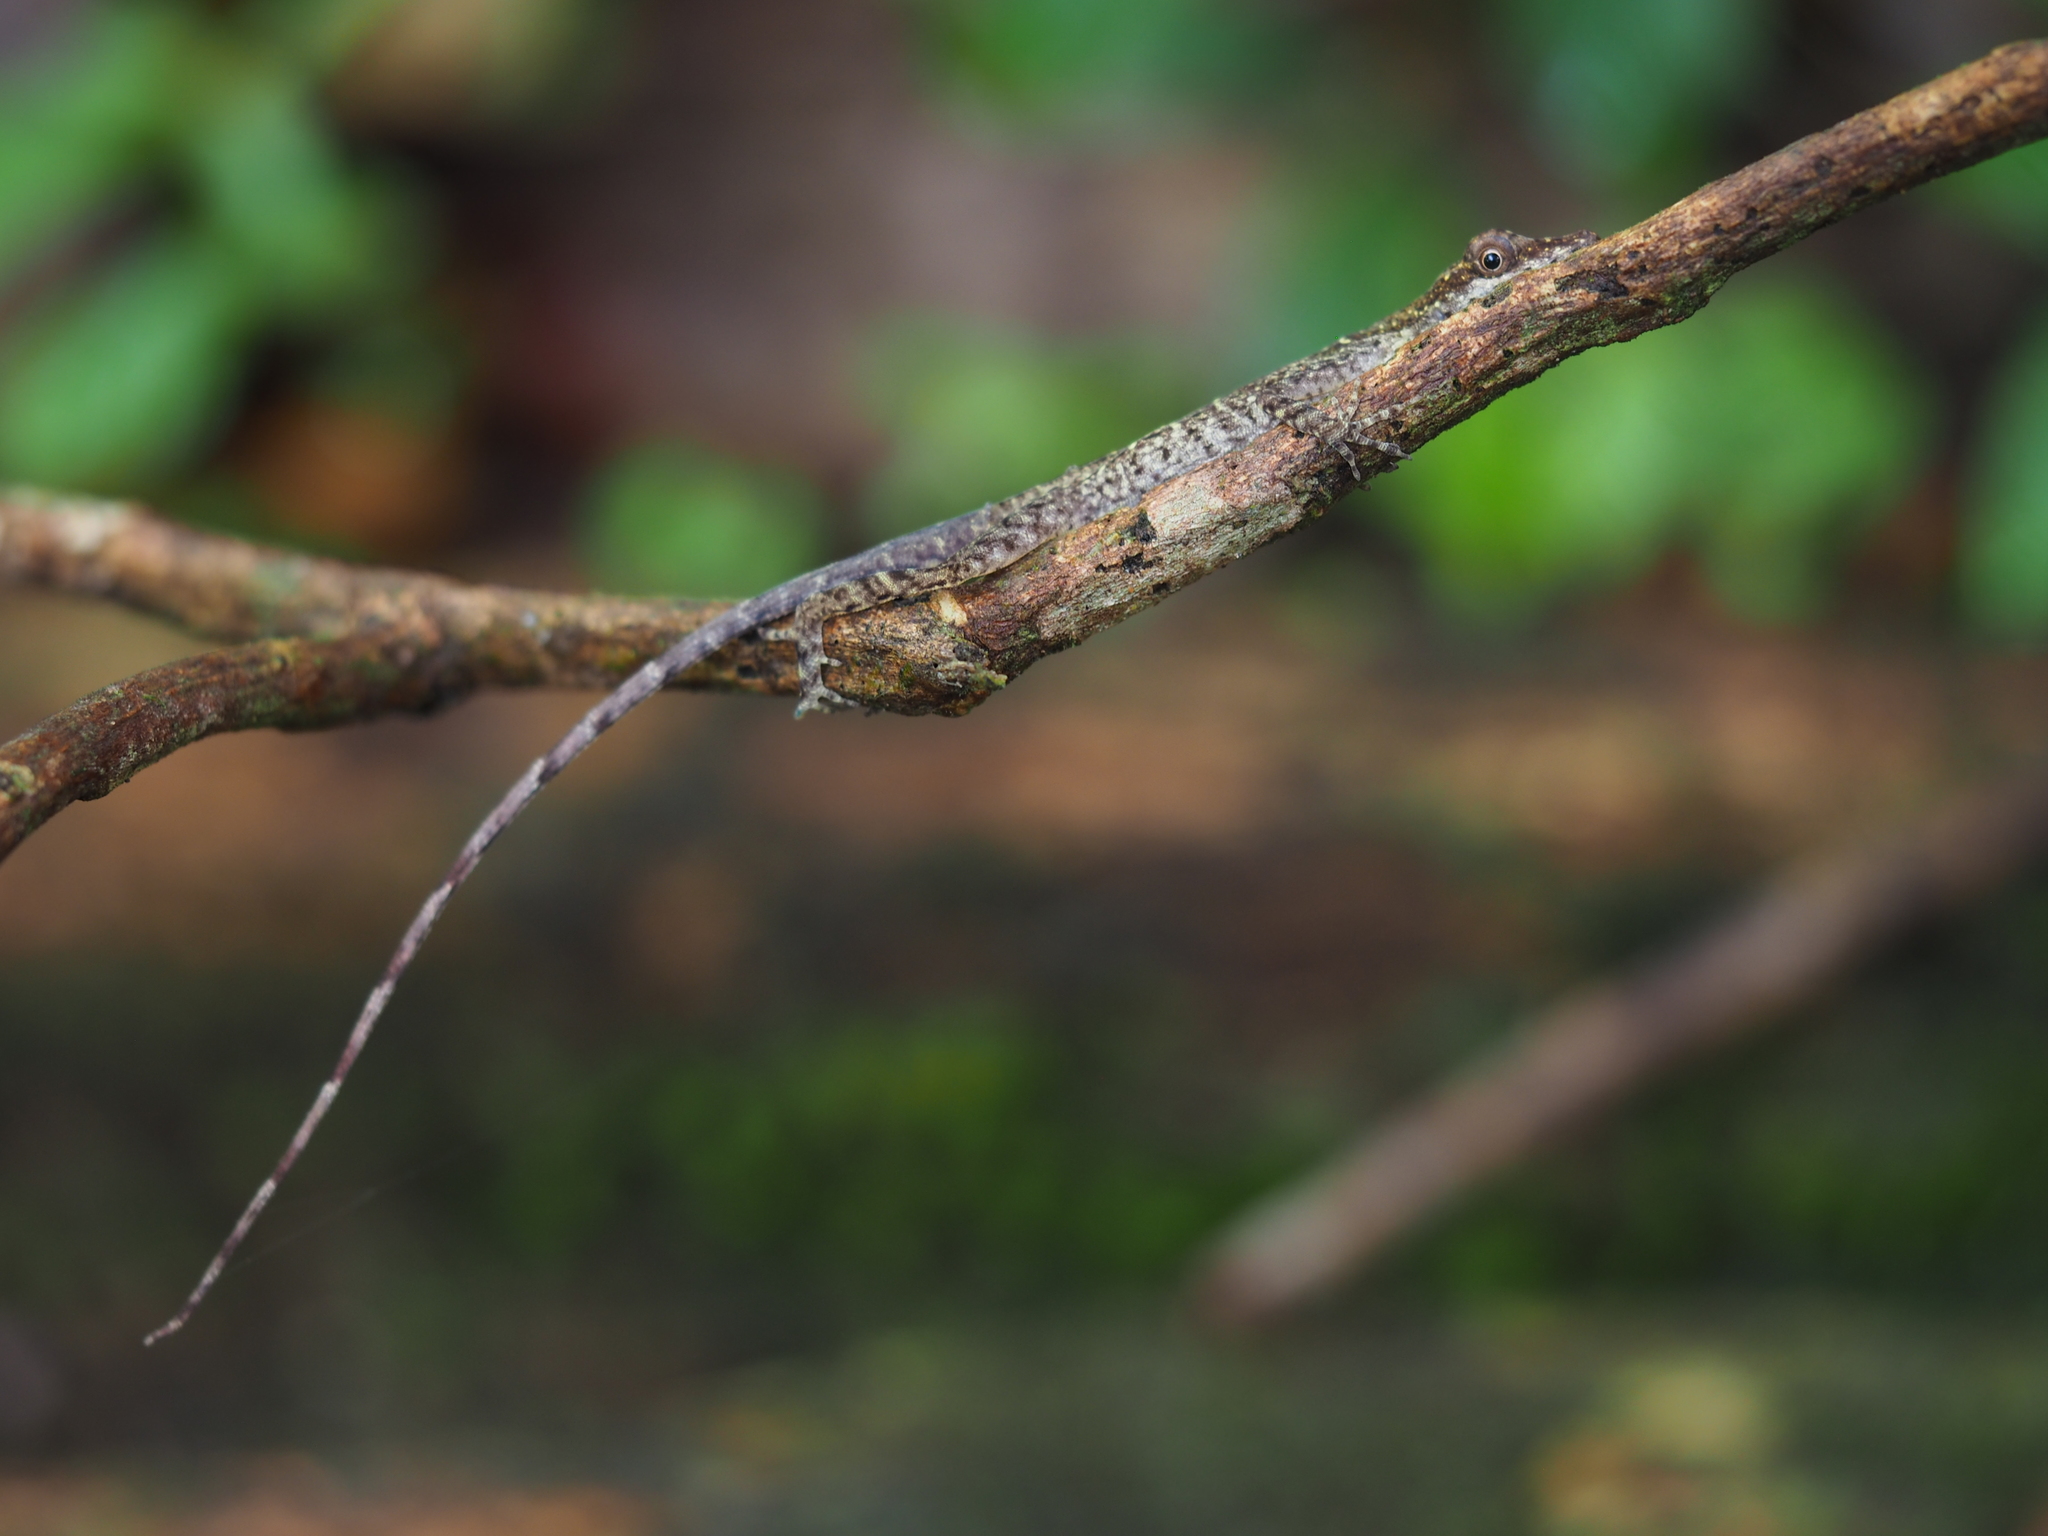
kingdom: Animalia
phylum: Chordata
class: Squamata
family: Dactyloidae
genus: Anolis
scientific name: Anolis limifrons
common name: Border anole
